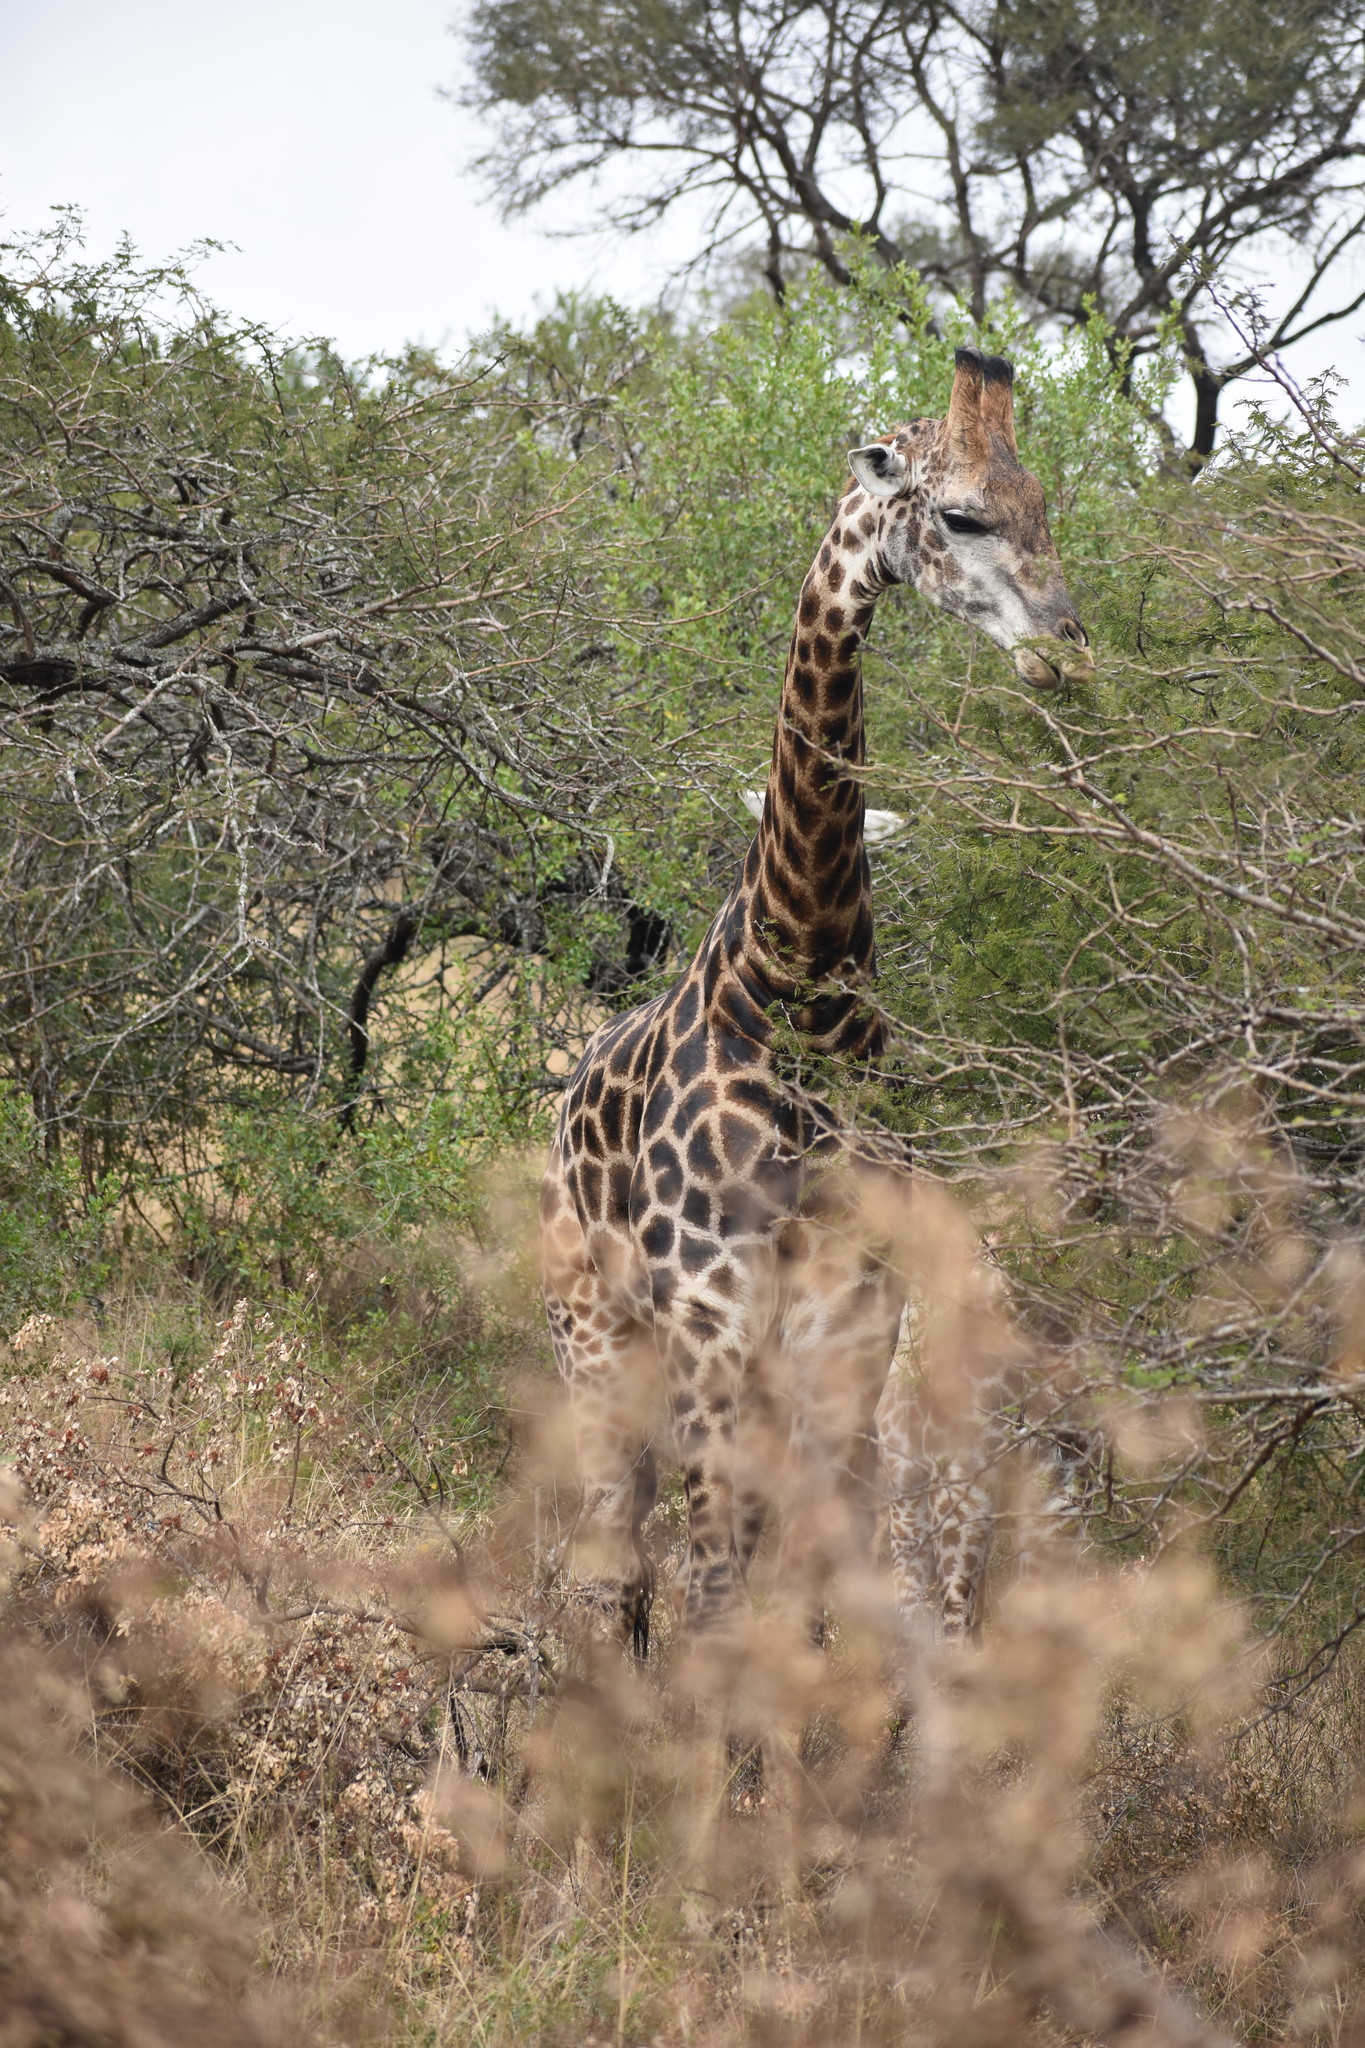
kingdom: Animalia
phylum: Chordata
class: Mammalia
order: Artiodactyla
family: Giraffidae
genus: Giraffa
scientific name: Giraffa giraffa
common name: Southern giraffe
